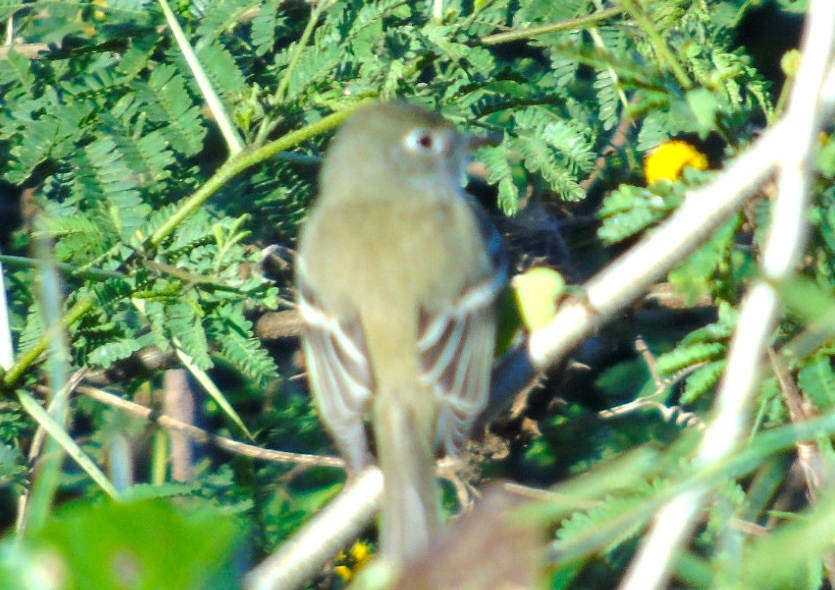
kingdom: Animalia
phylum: Chordata
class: Aves
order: Passeriformes
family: Tyrannidae
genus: Empidonax
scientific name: Empidonax
